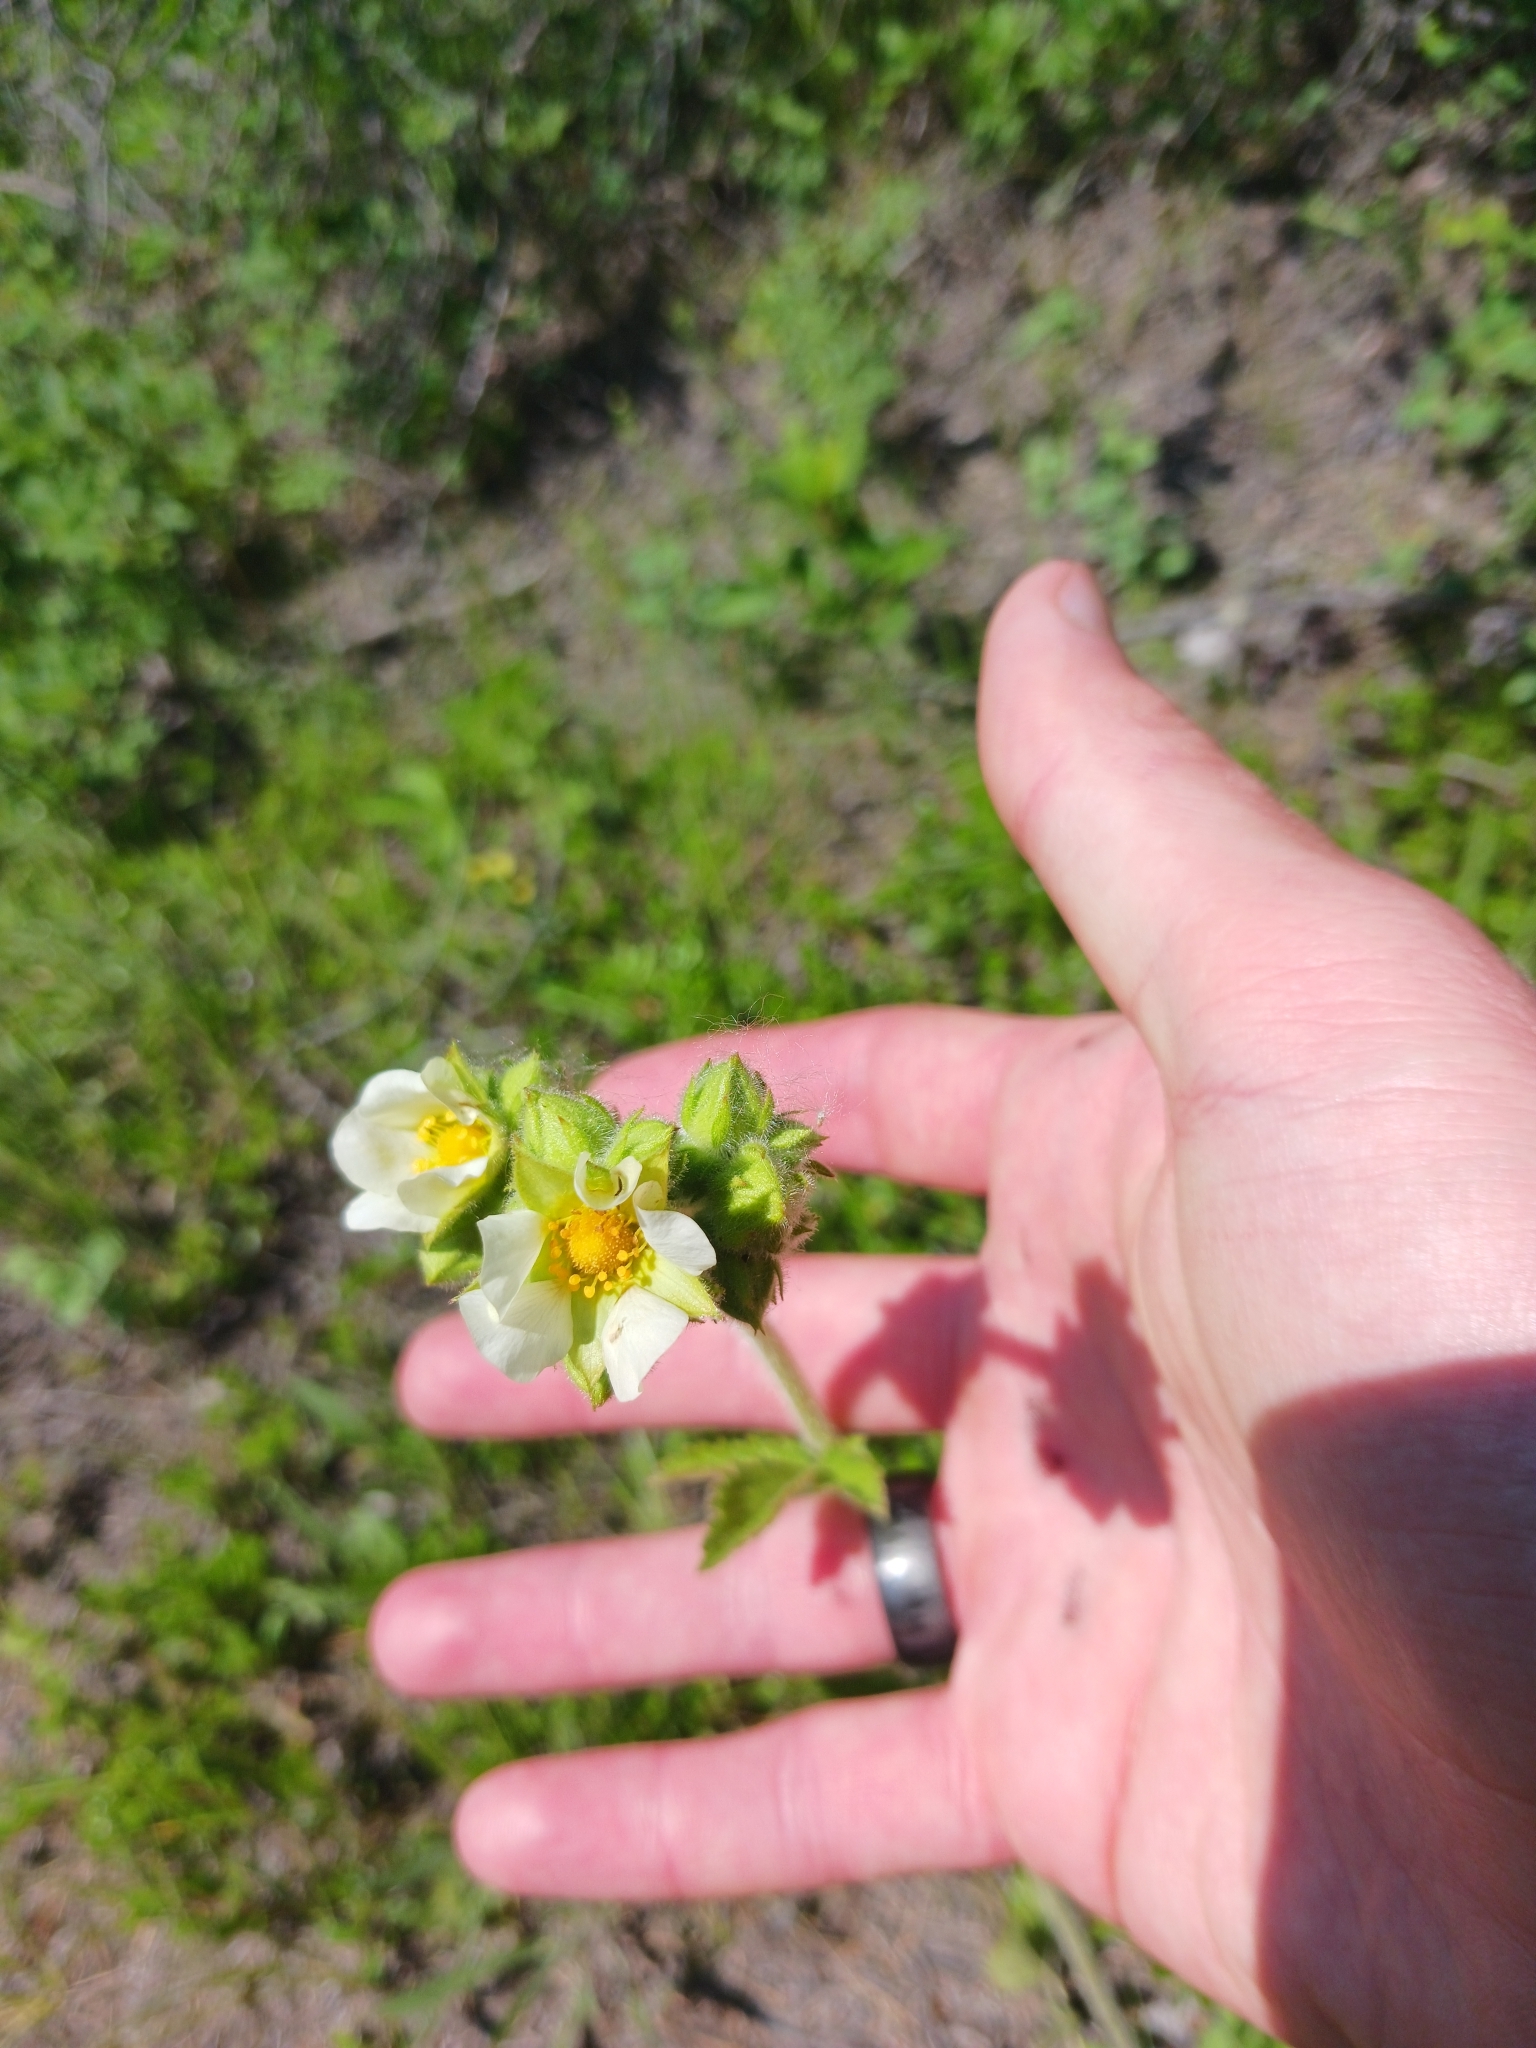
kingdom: Plantae
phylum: Tracheophyta
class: Magnoliopsida
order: Rosales
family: Rosaceae
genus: Drymocallis
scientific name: Drymocallis arguta
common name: Tall cinquefoil
